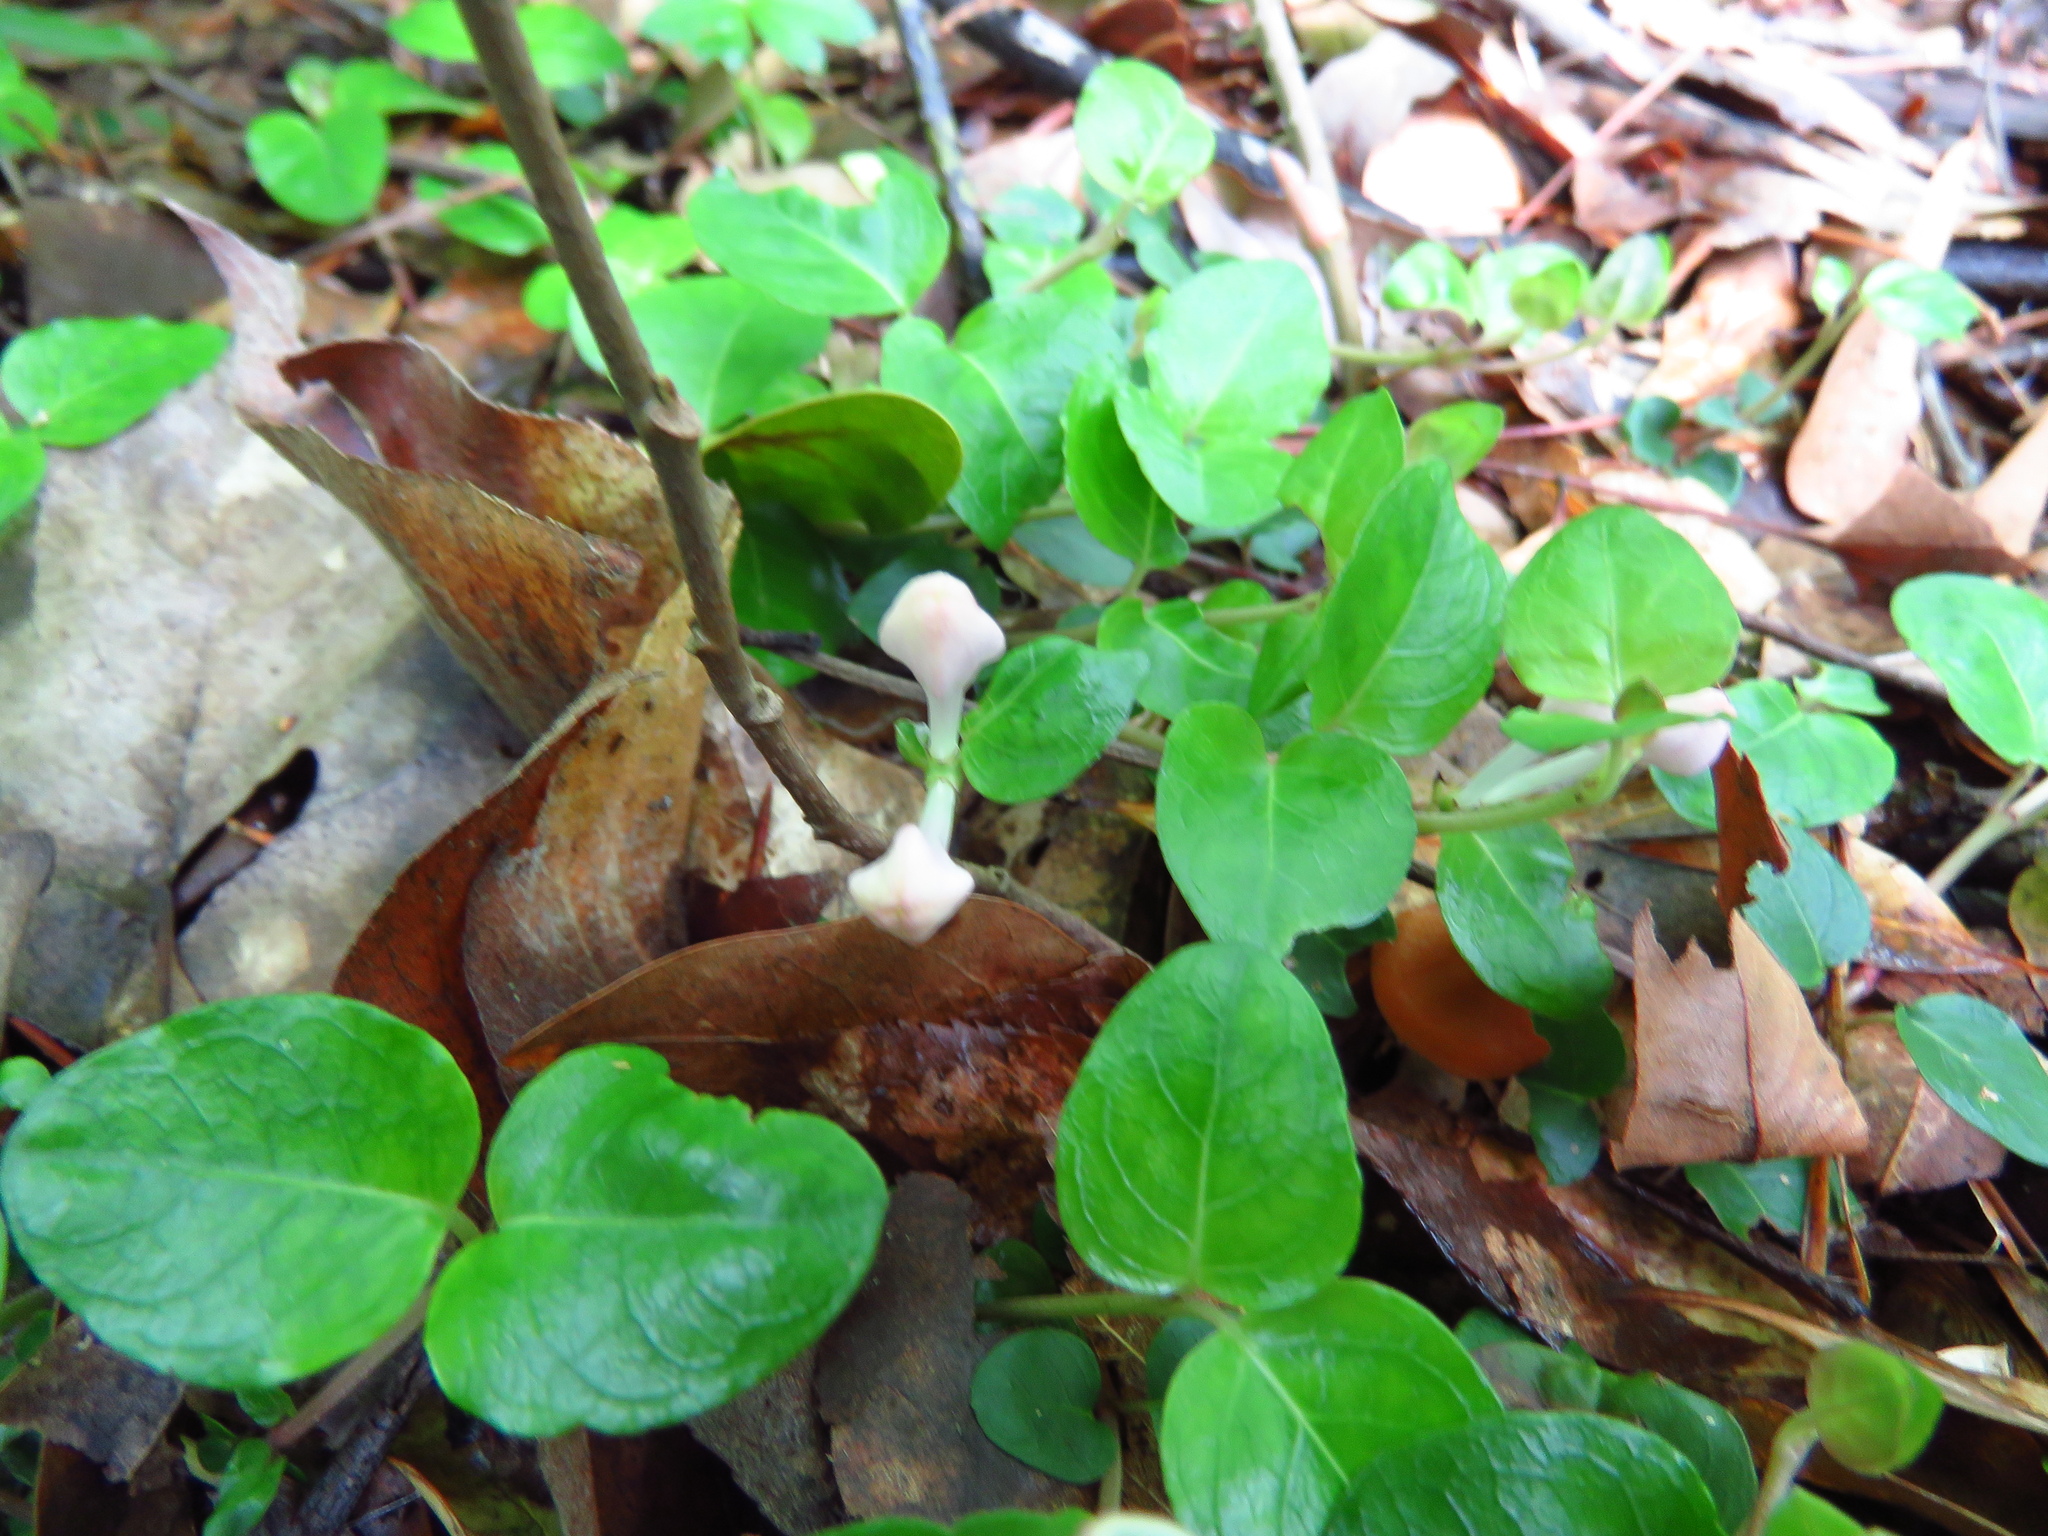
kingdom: Plantae
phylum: Tracheophyta
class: Magnoliopsida
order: Gentianales
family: Rubiaceae
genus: Mitchella
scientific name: Mitchella repens
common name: Partridge-berry
